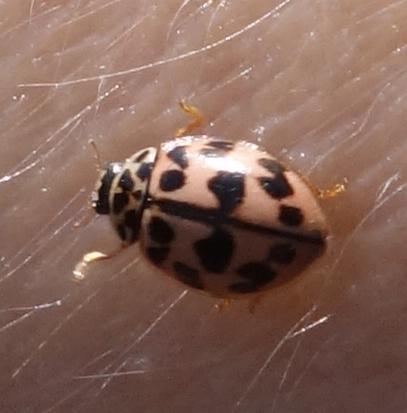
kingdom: Animalia
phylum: Arthropoda
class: Insecta
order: Coleoptera
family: Coccinellidae
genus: Oenopia
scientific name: Oenopia conglobata
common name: Ladybird beetle
